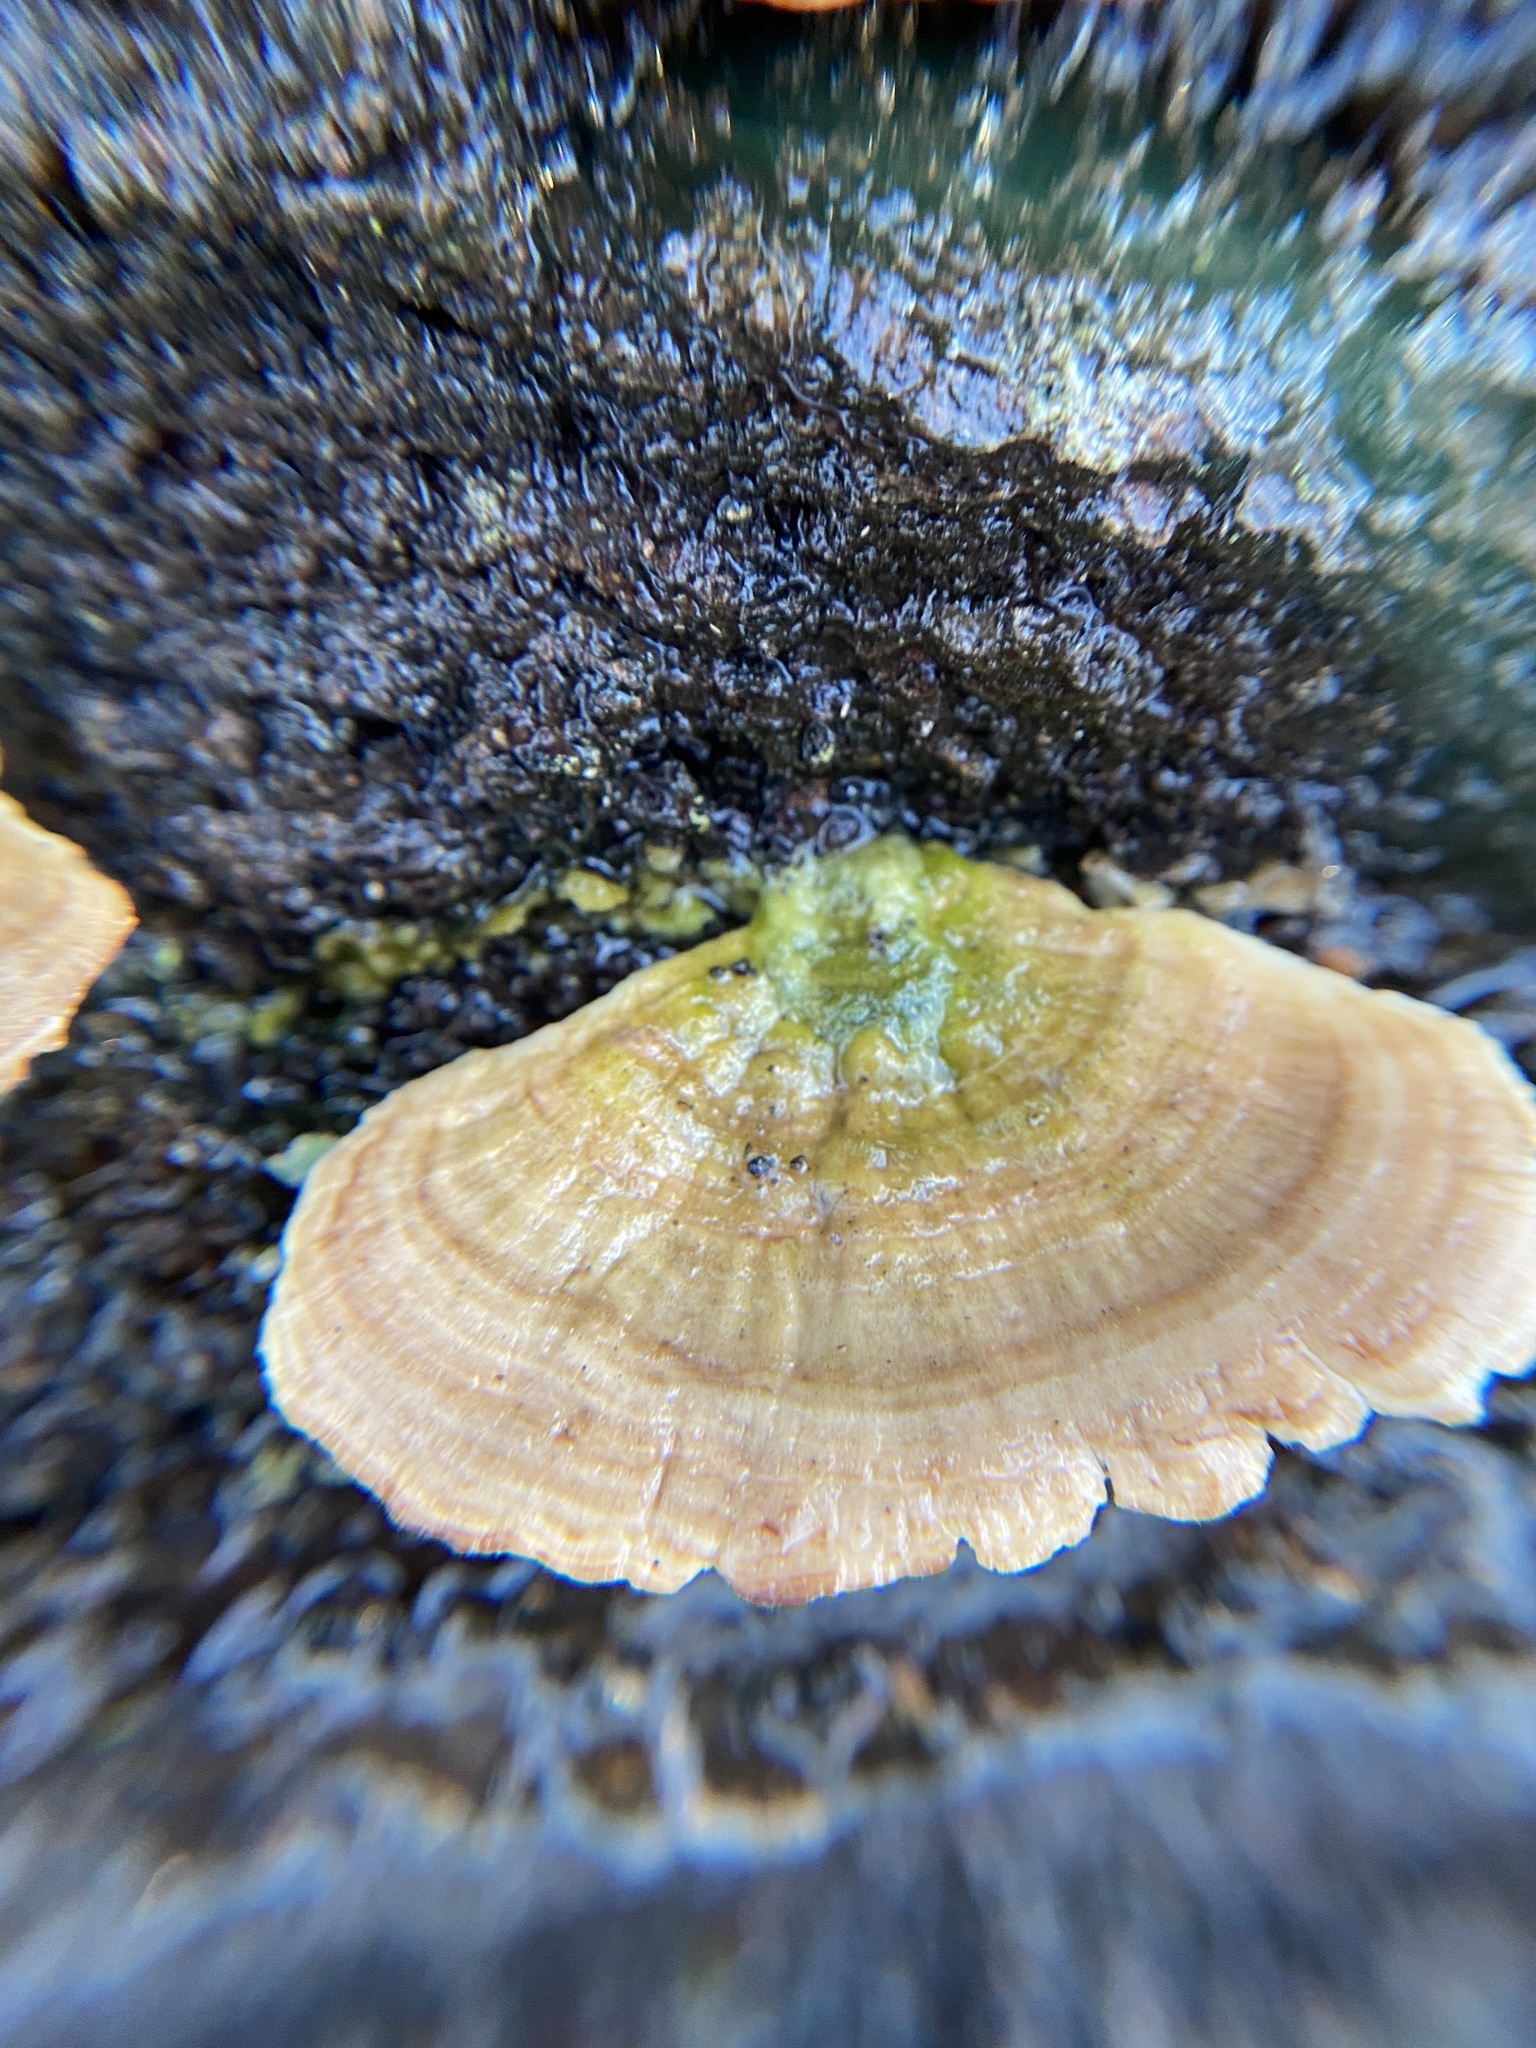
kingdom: Fungi
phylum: Basidiomycota
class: Agaricomycetes
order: Hymenochaetales
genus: Trichaptum
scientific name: Trichaptum biforme
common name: Violet-toothed polypore
